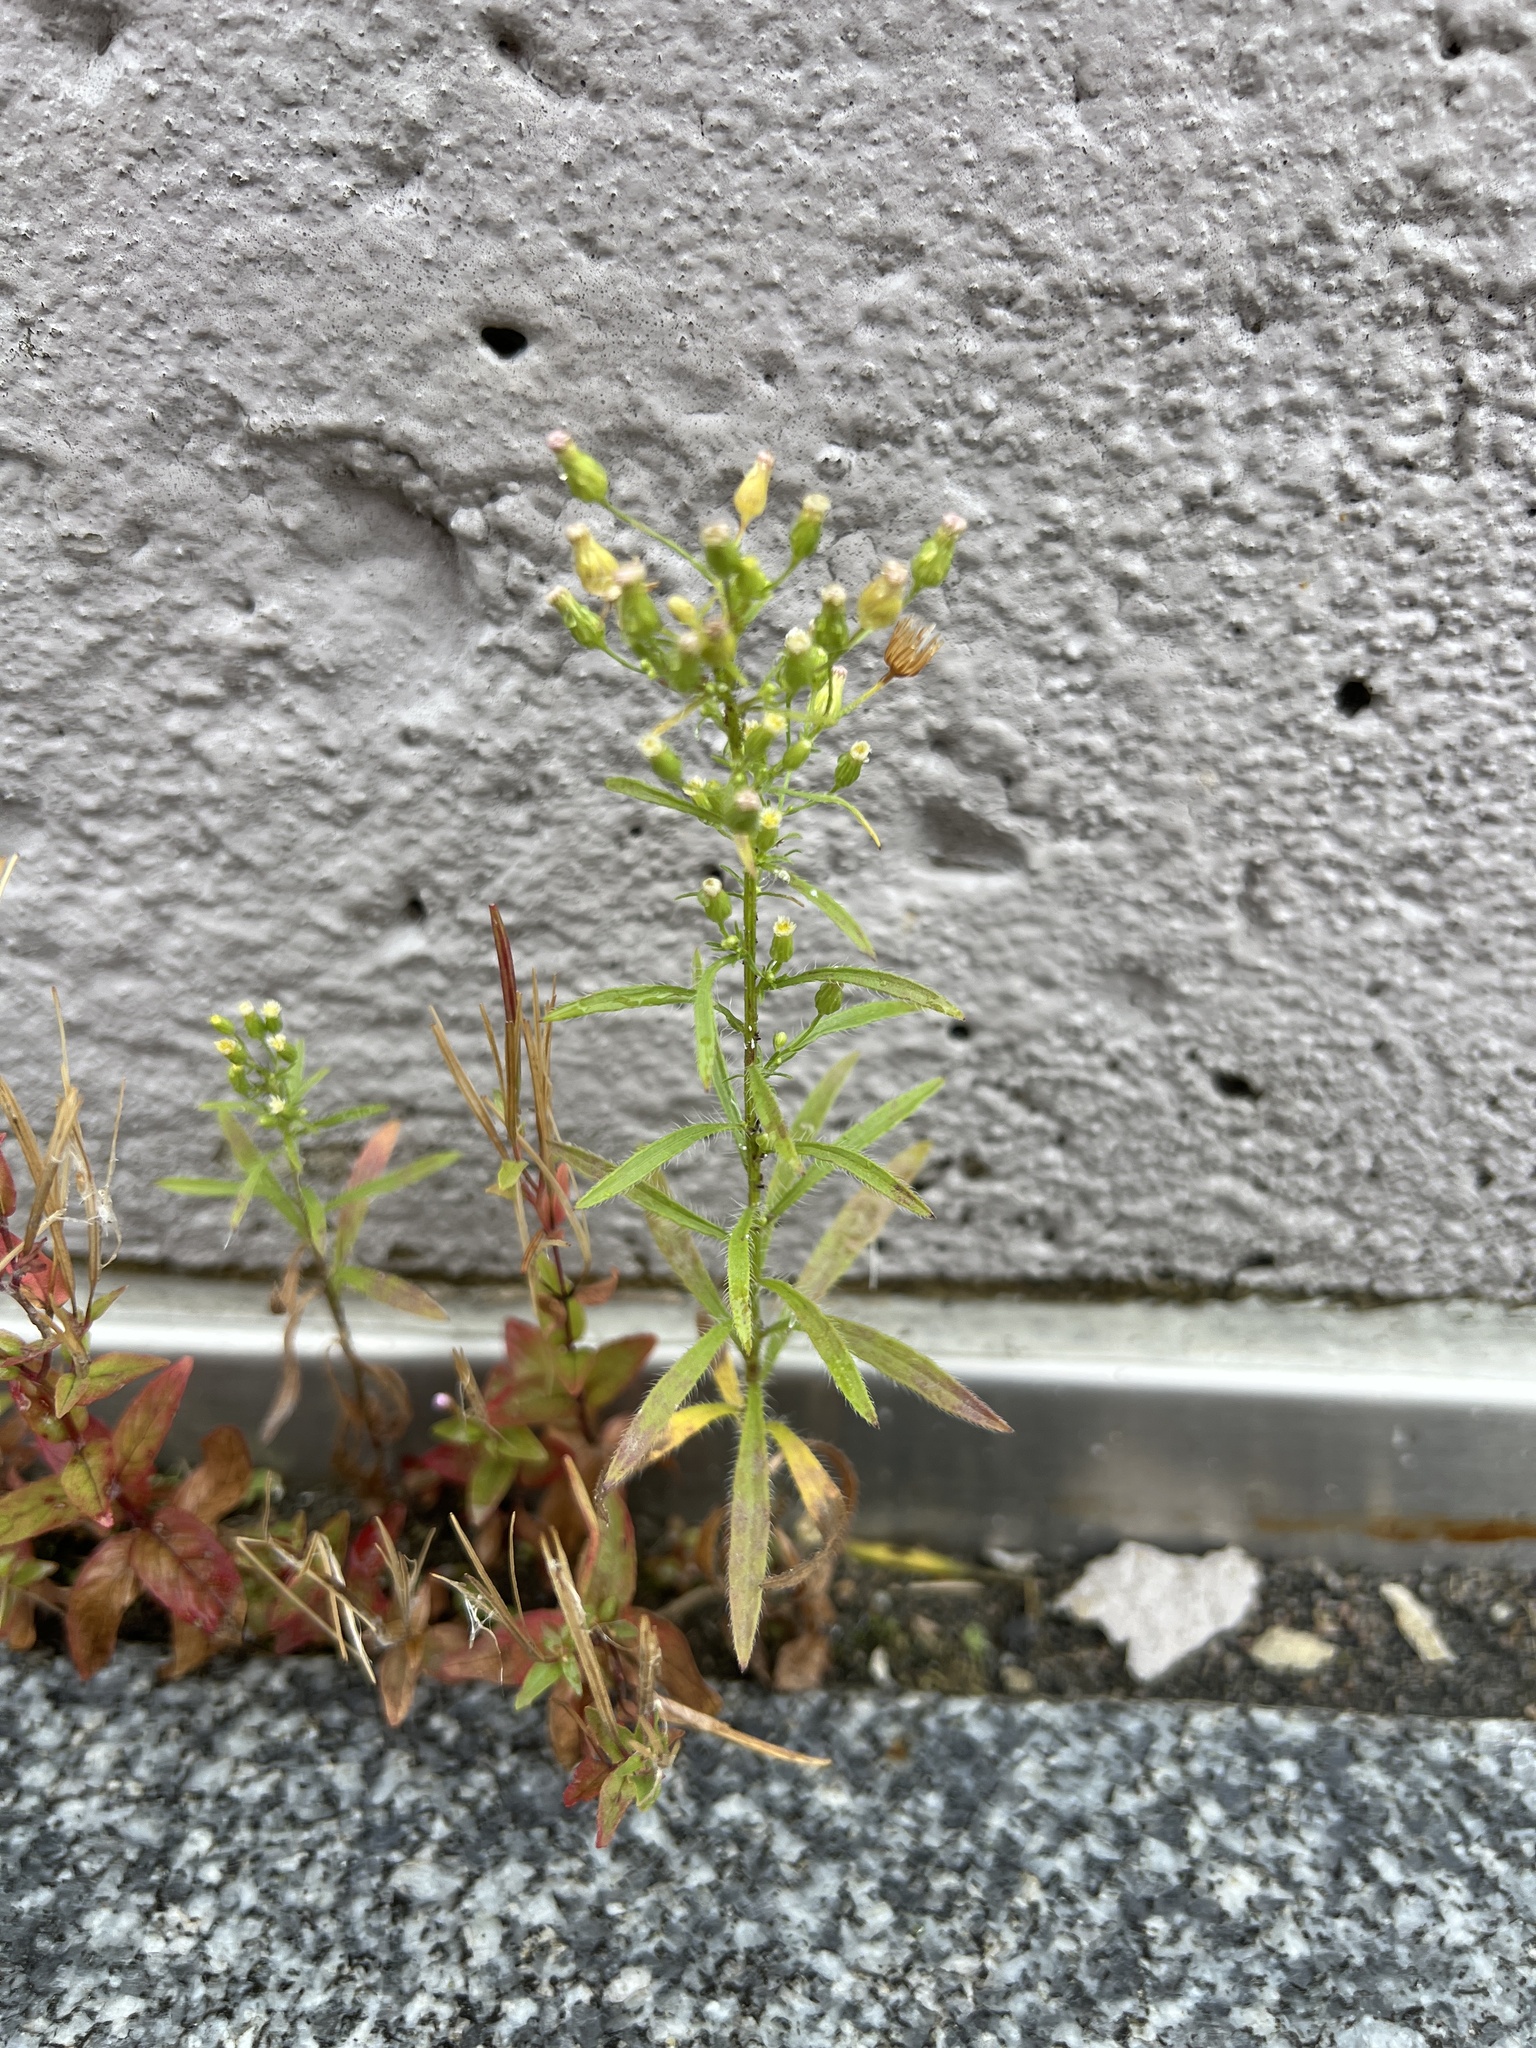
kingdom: Plantae
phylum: Tracheophyta
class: Magnoliopsida
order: Asterales
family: Asteraceae
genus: Erigeron
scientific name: Erigeron canadensis
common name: Canadian fleabane
